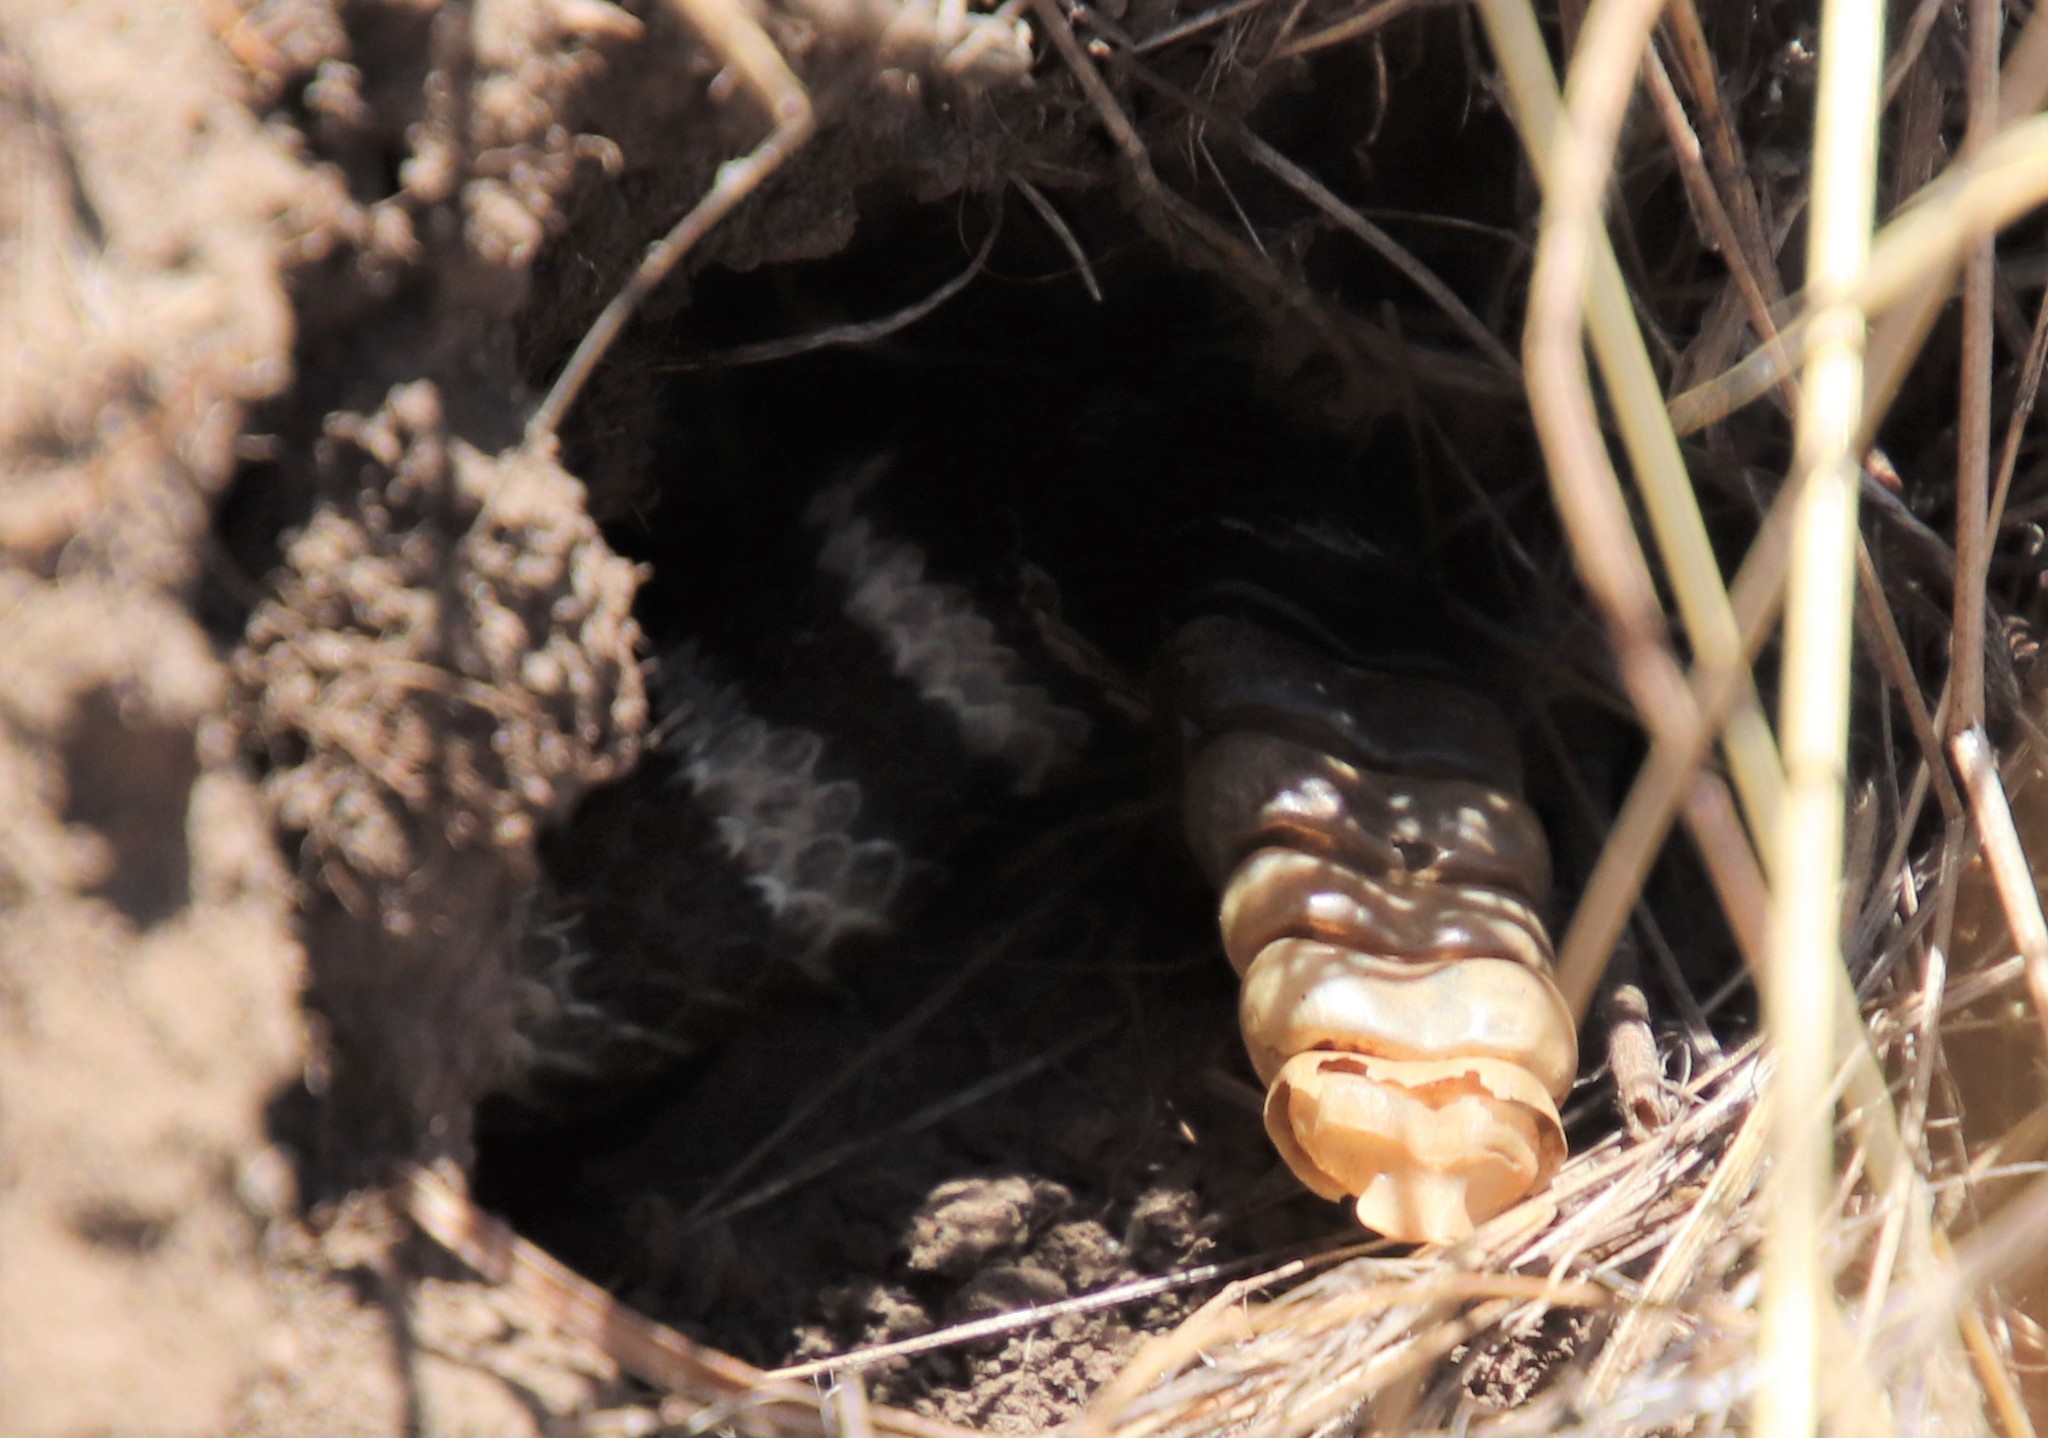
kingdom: Animalia
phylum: Chordata
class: Squamata
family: Viperidae
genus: Crotalus
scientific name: Crotalus oreganus
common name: Abyssus
